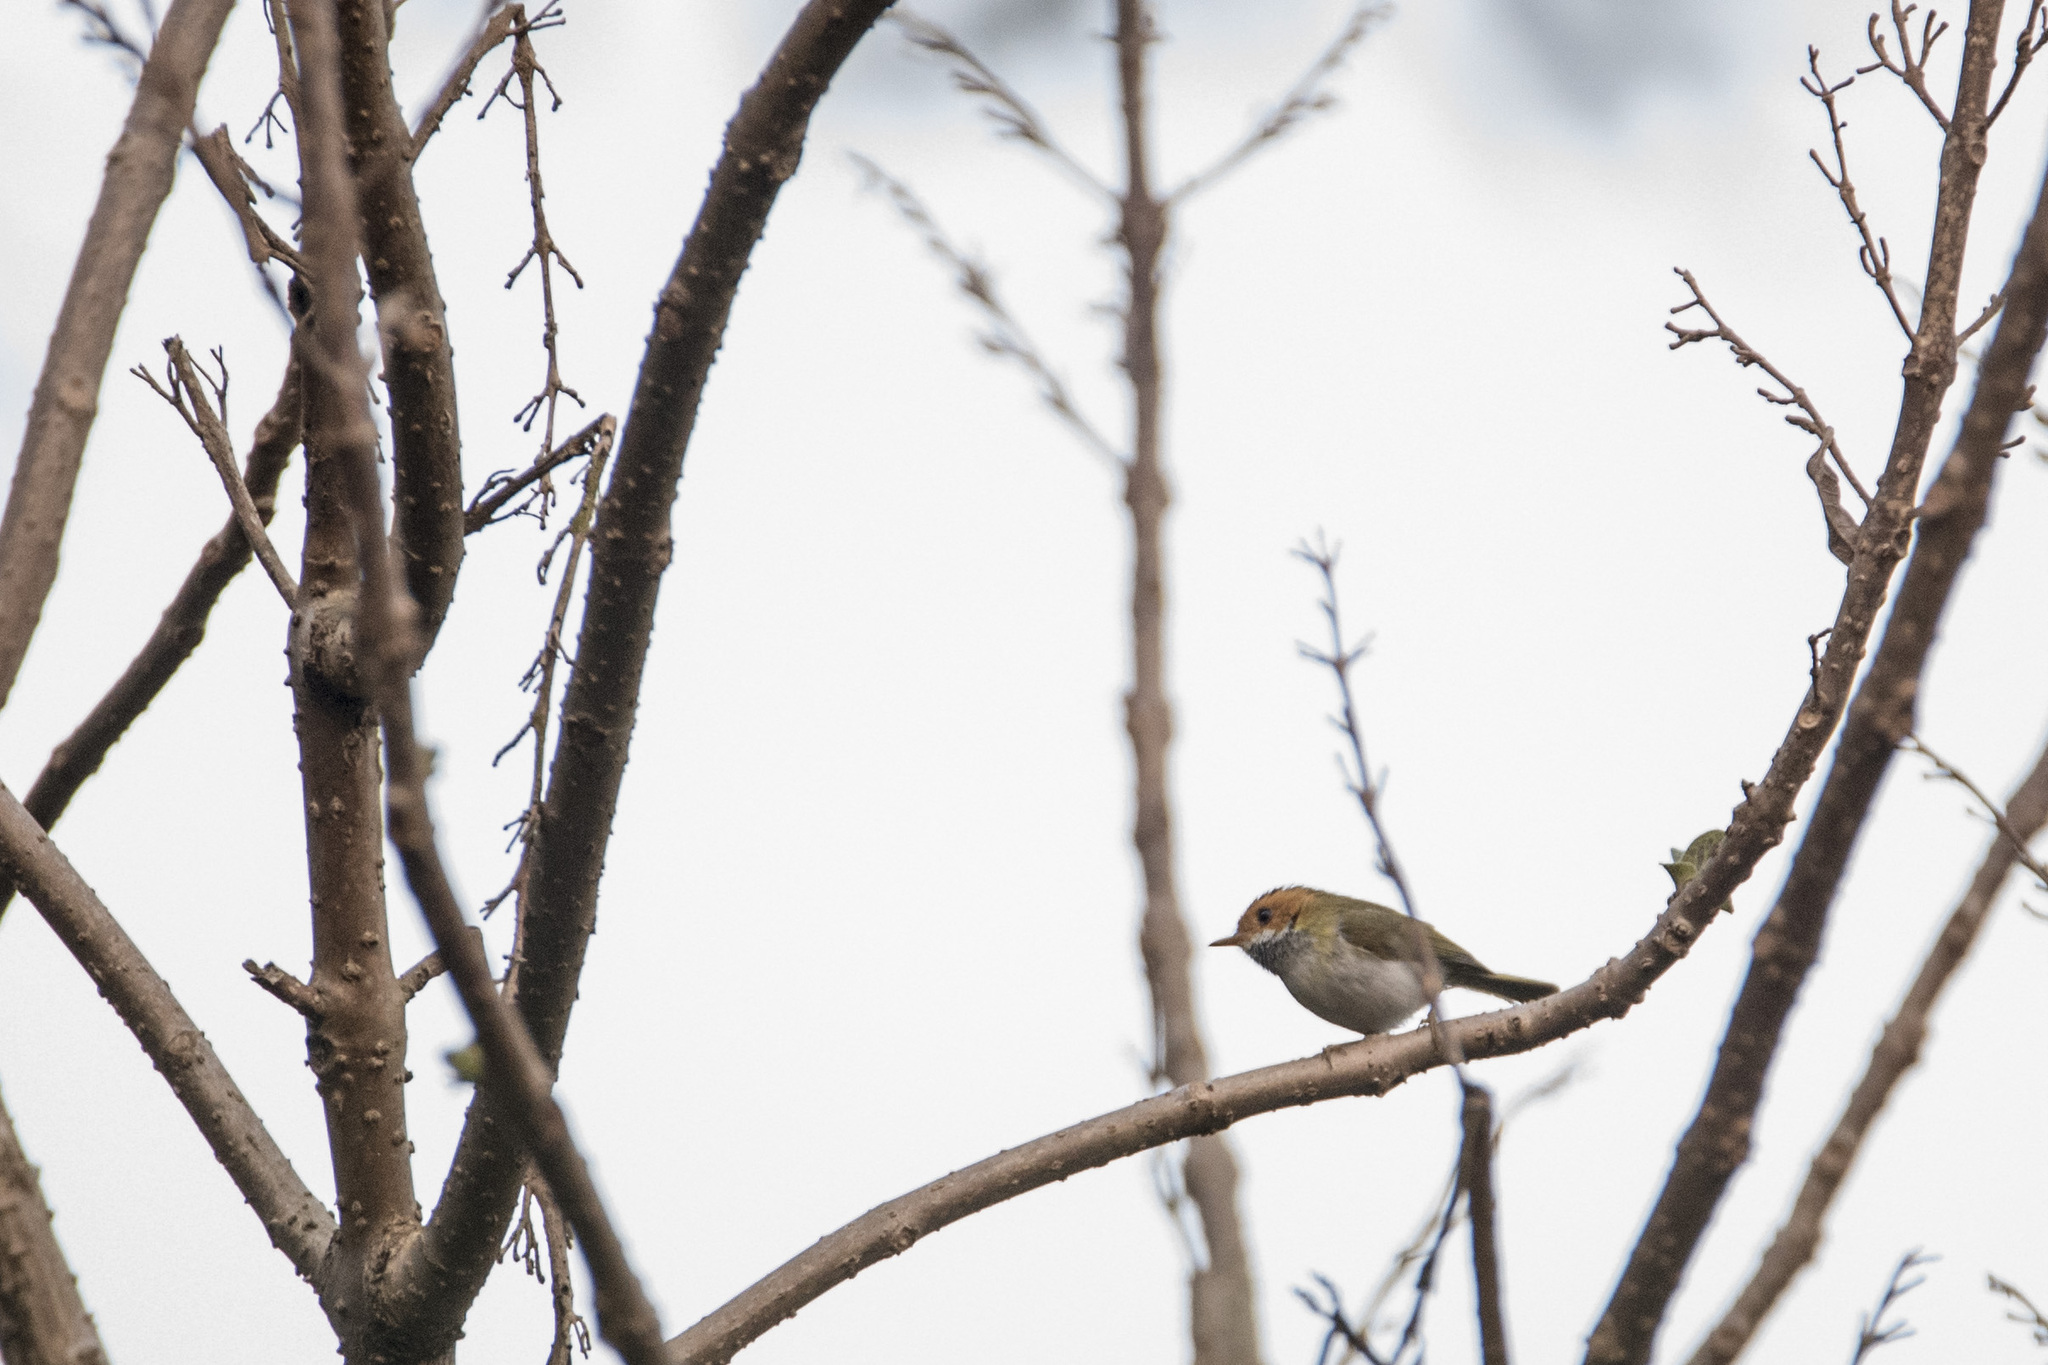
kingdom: Animalia
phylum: Chordata
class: Aves
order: Passeriformes
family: Cettiidae
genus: Abroscopus
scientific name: Abroscopus albogularis
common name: Rufous-faced warbler
